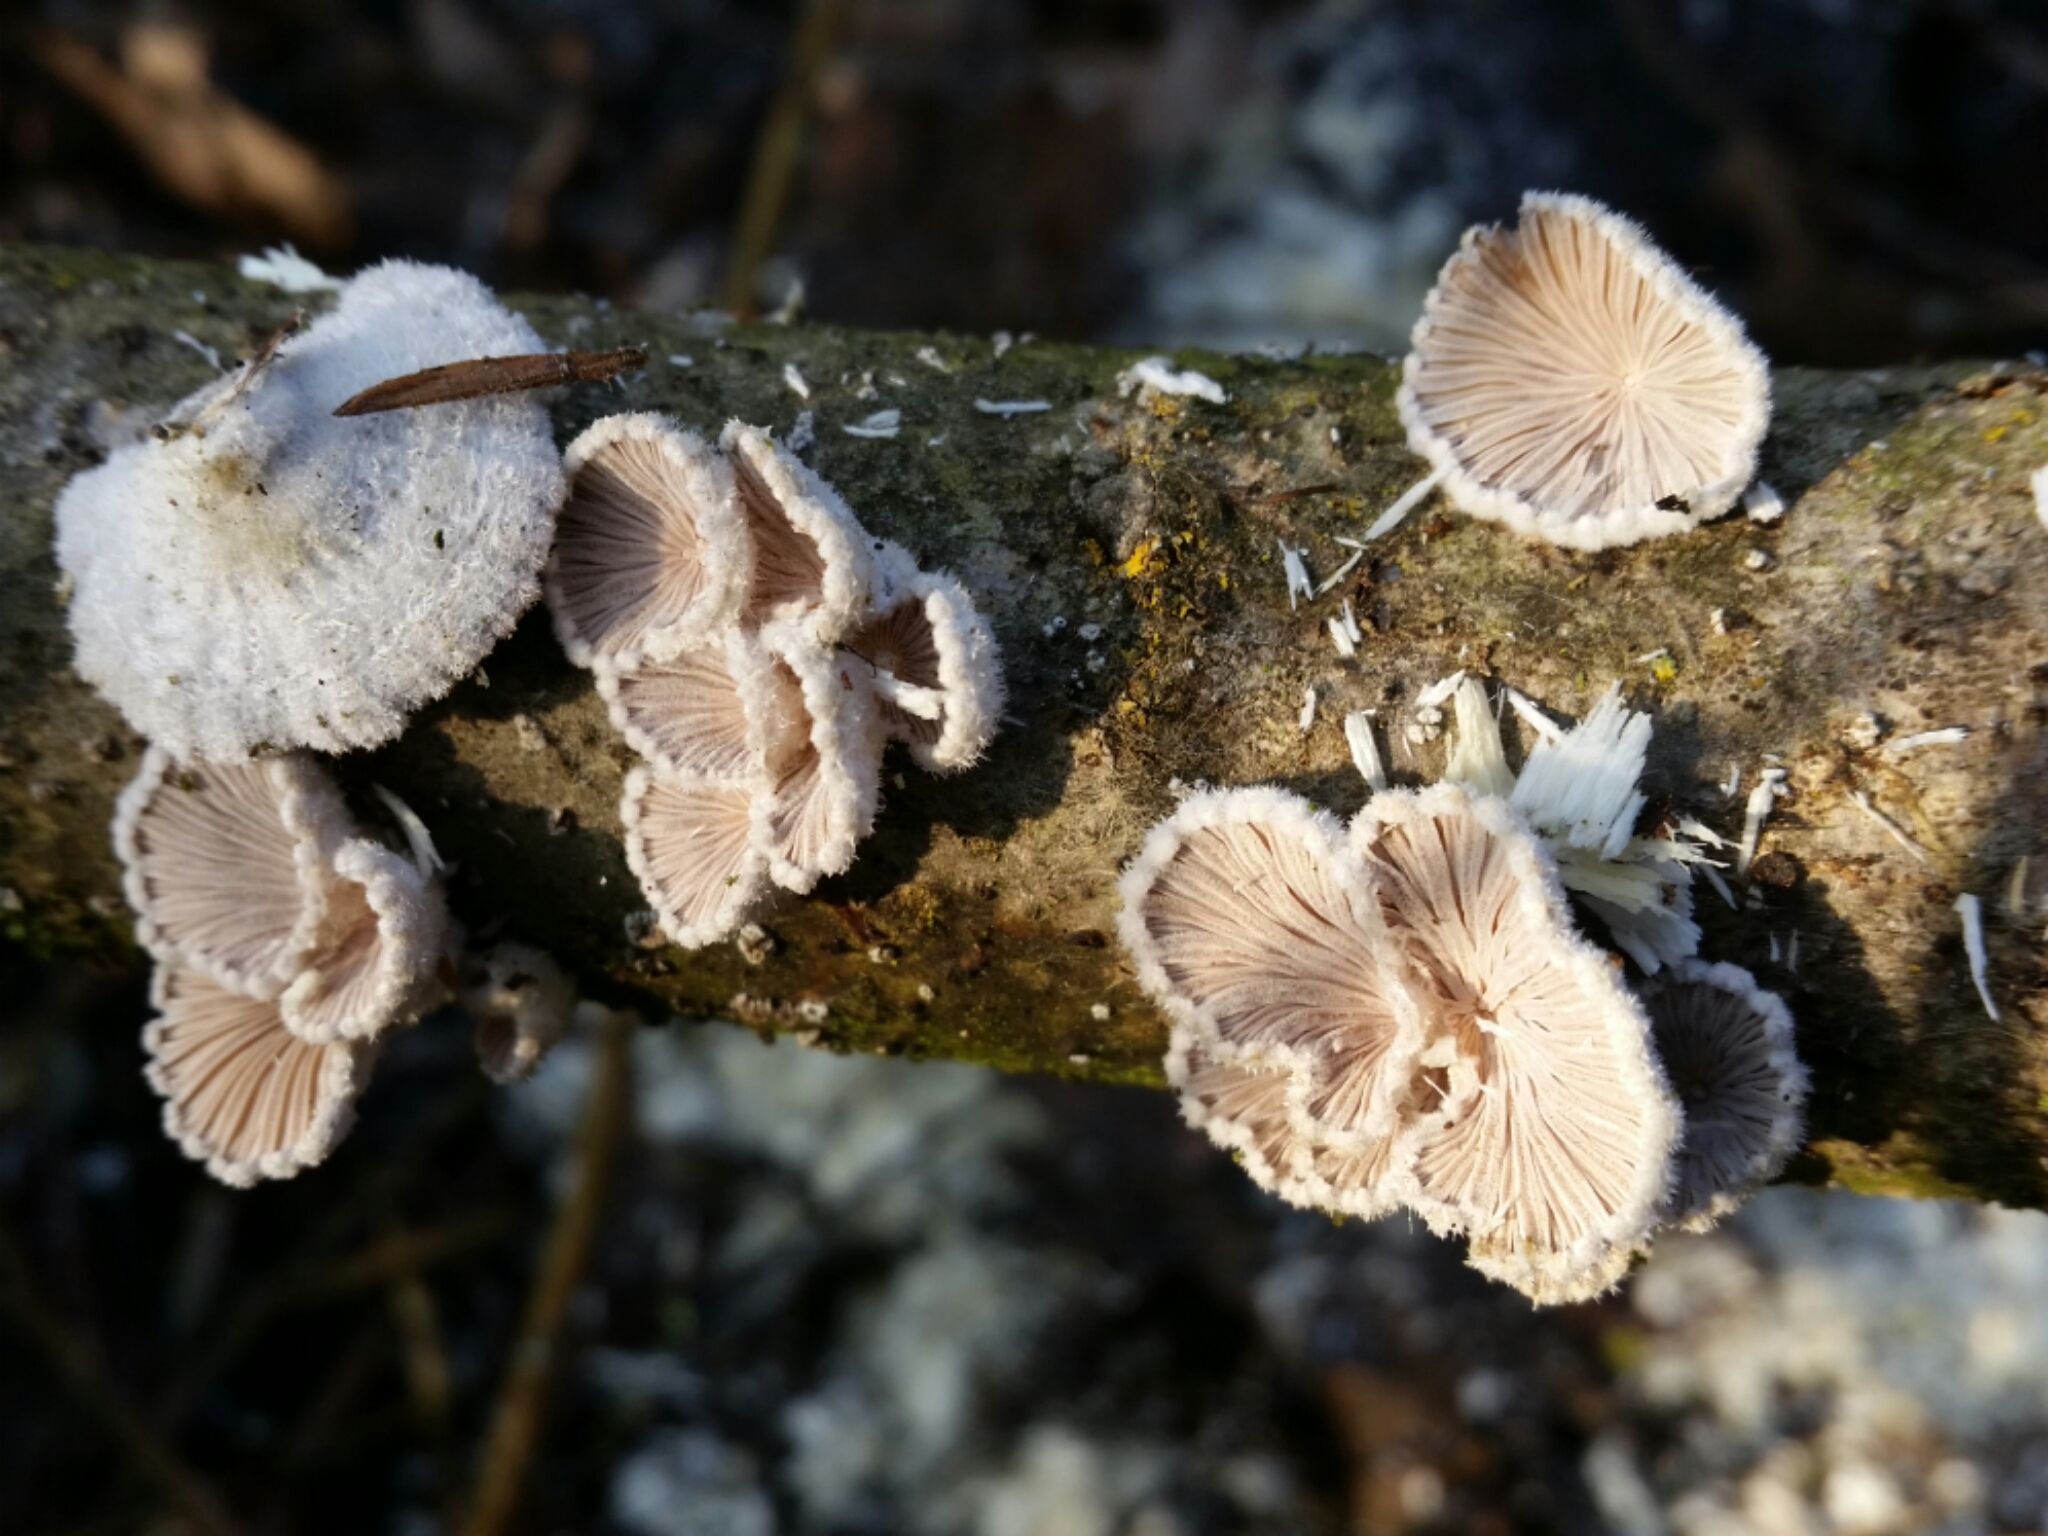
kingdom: Fungi
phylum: Basidiomycota
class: Agaricomycetes
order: Agaricales
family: Schizophyllaceae
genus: Schizophyllum
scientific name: Schizophyllum commune
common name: Common porecrust
